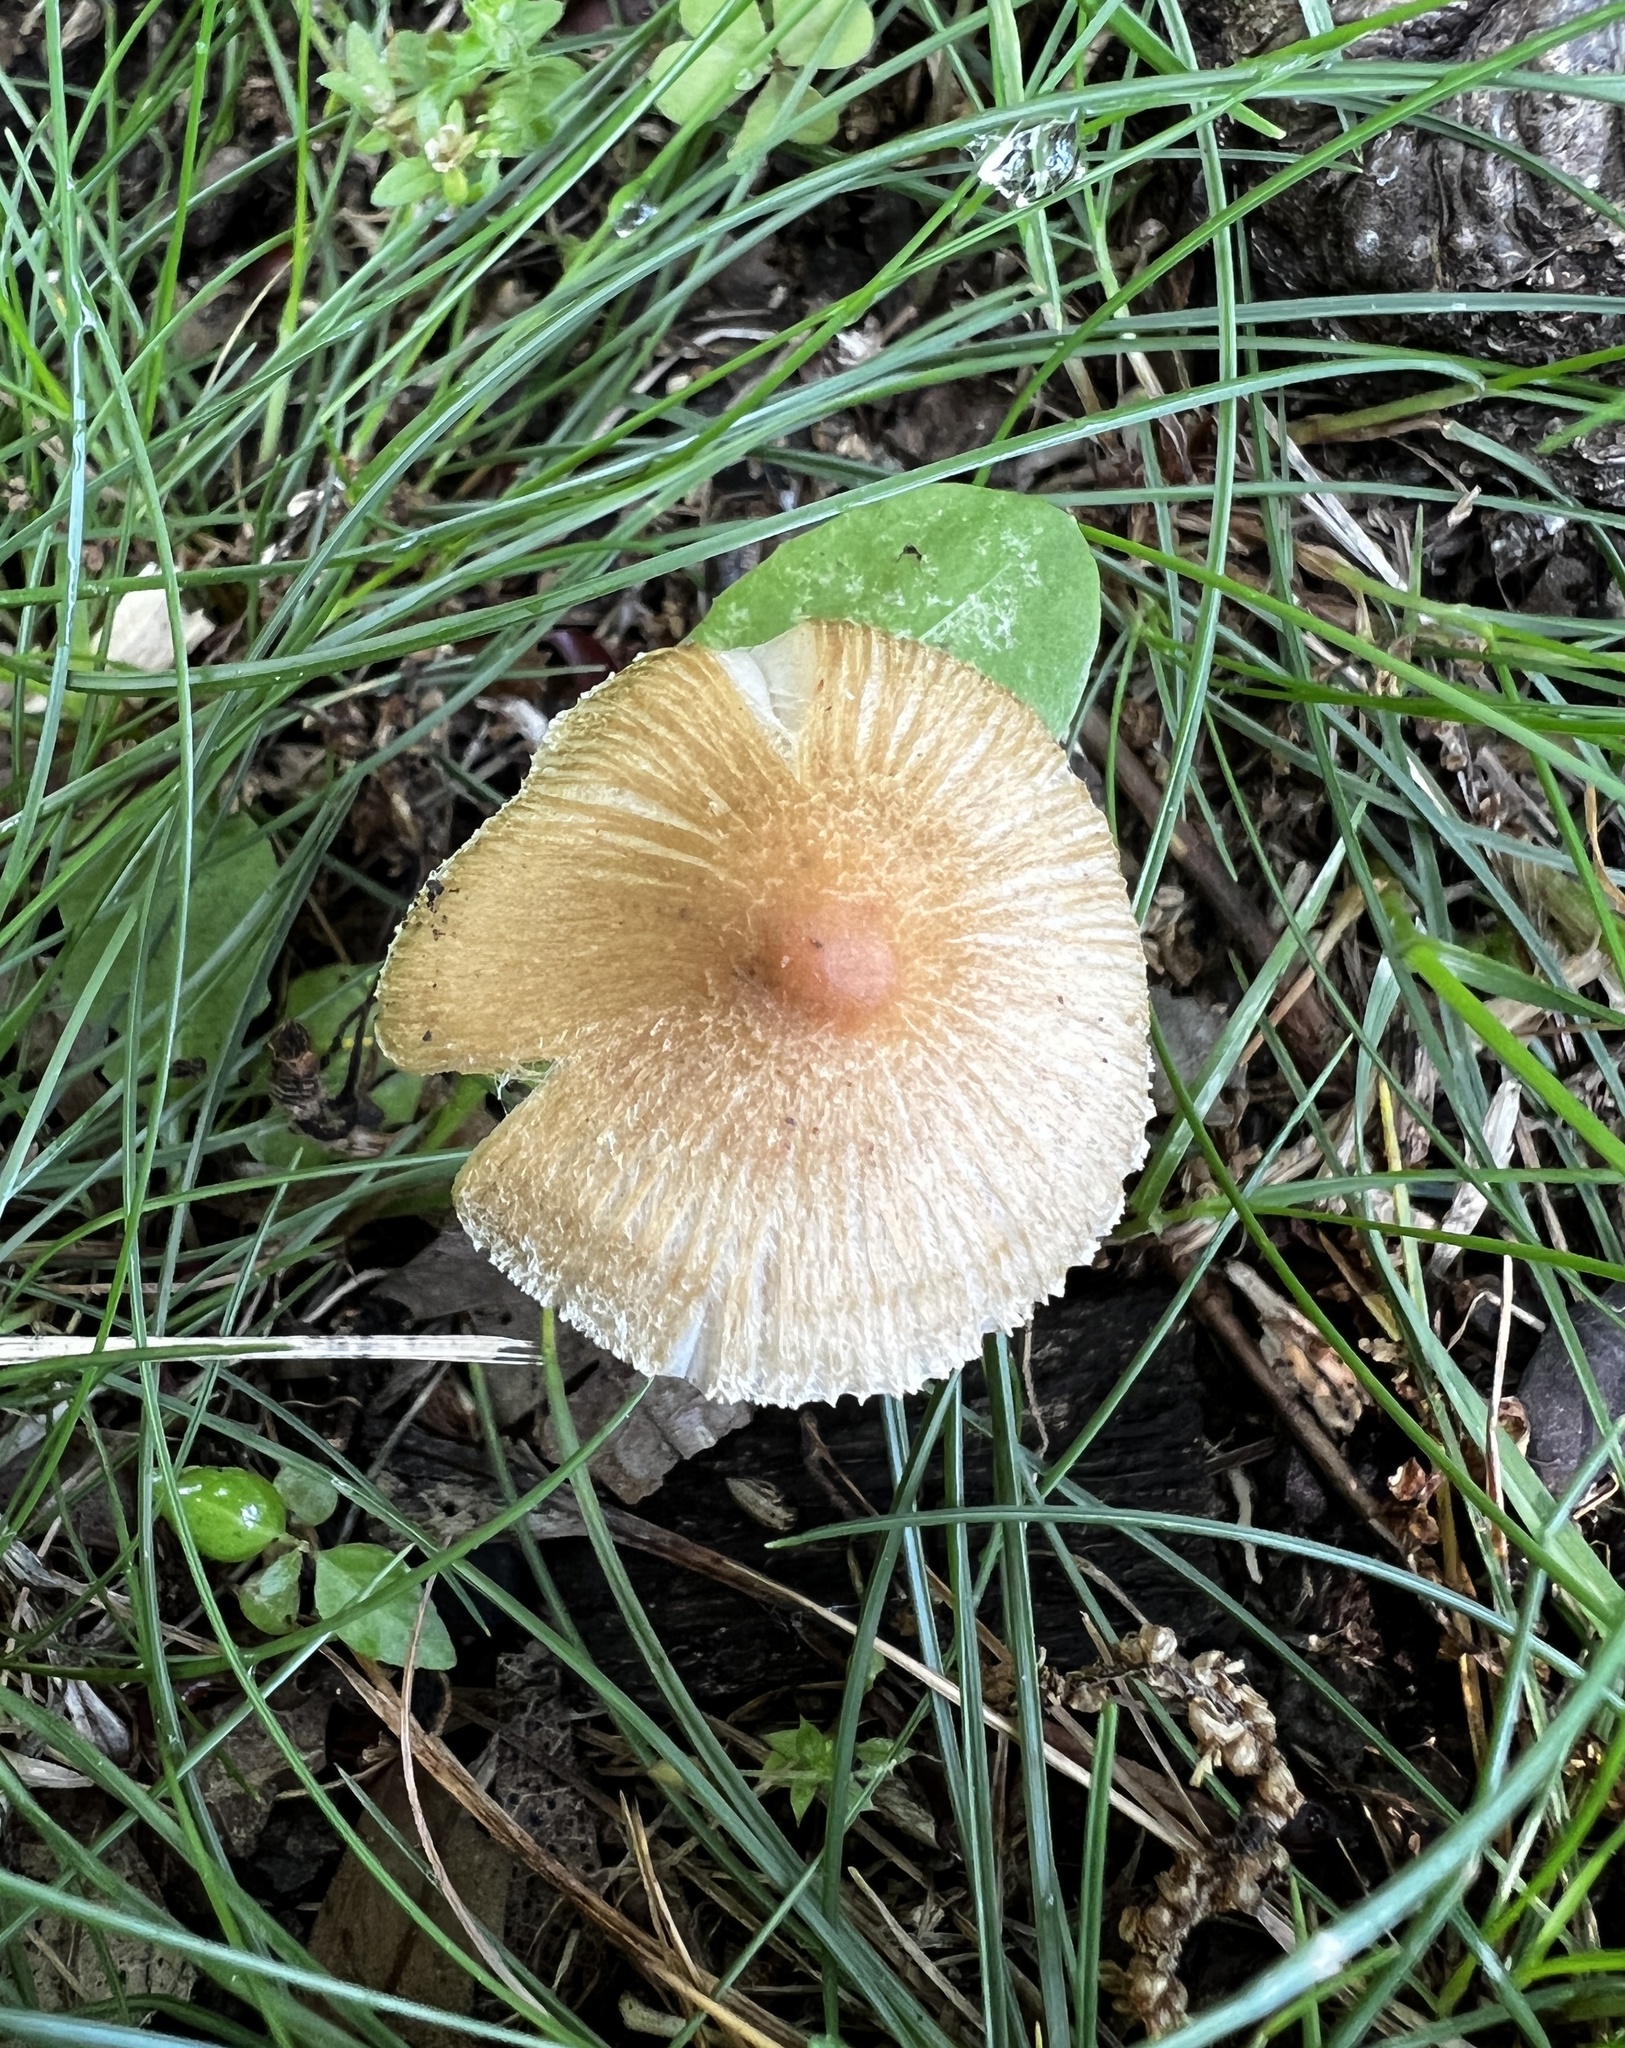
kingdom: Fungi
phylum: Basidiomycota
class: Agaricomycetes
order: Agaricales
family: Inocybaceae
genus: Inocybe
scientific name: Inocybe radiata
